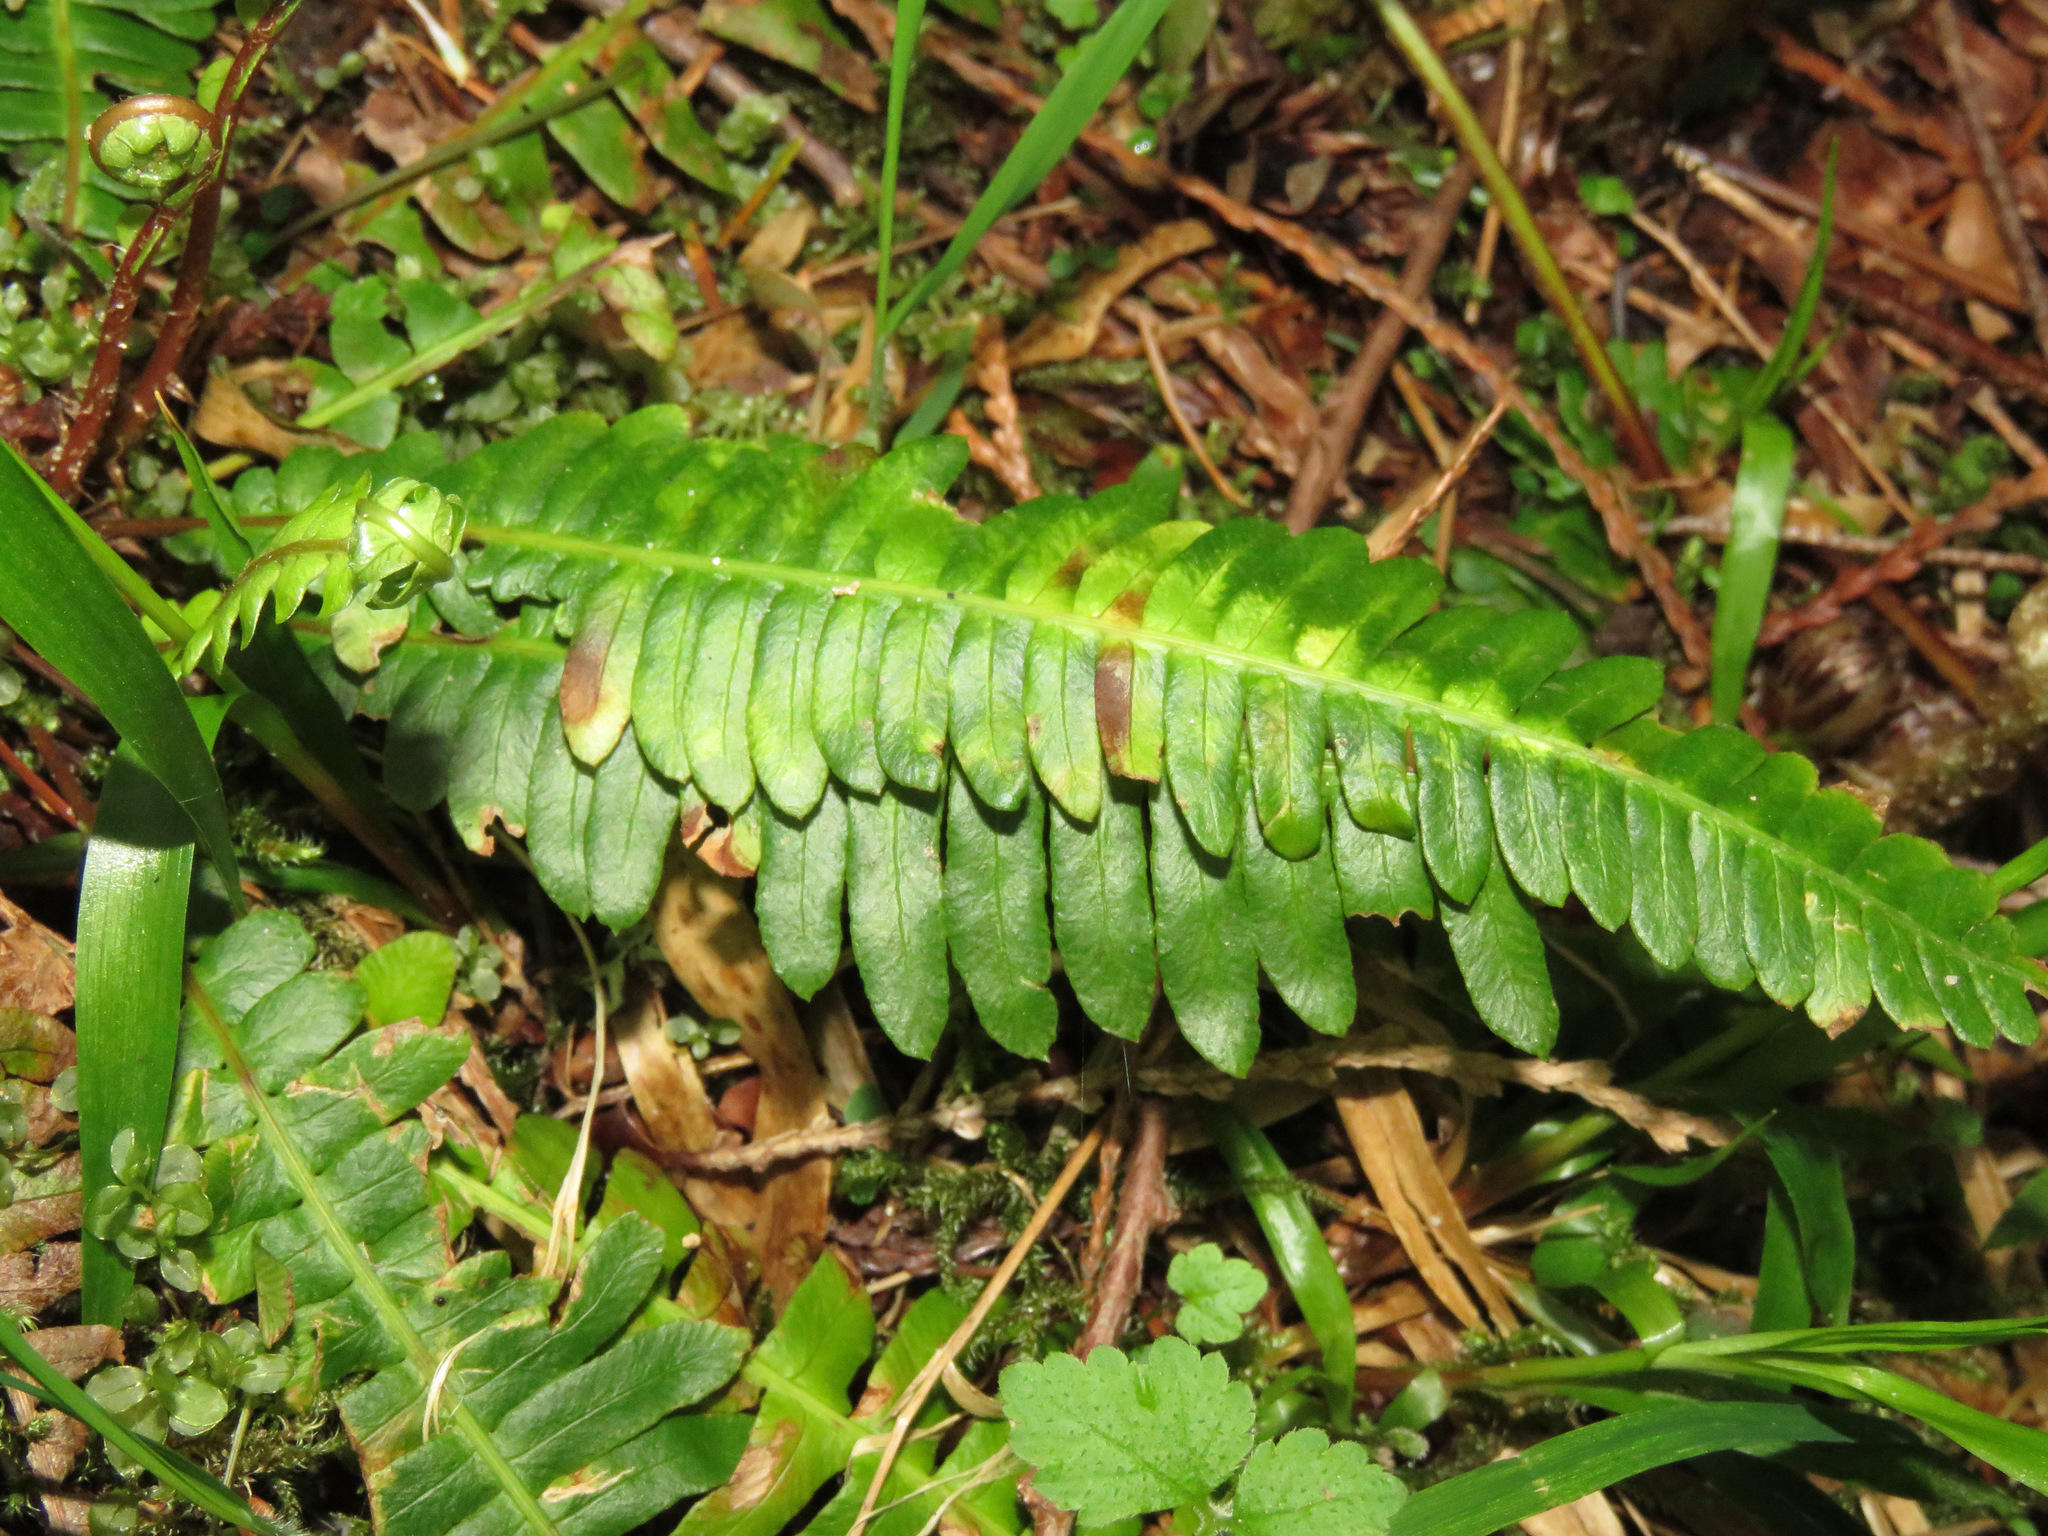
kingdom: Plantae
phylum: Tracheophyta
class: Polypodiopsida
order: Polypodiales
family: Blechnaceae
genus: Struthiopteris
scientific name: Struthiopteris spicant
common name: Deer fern
